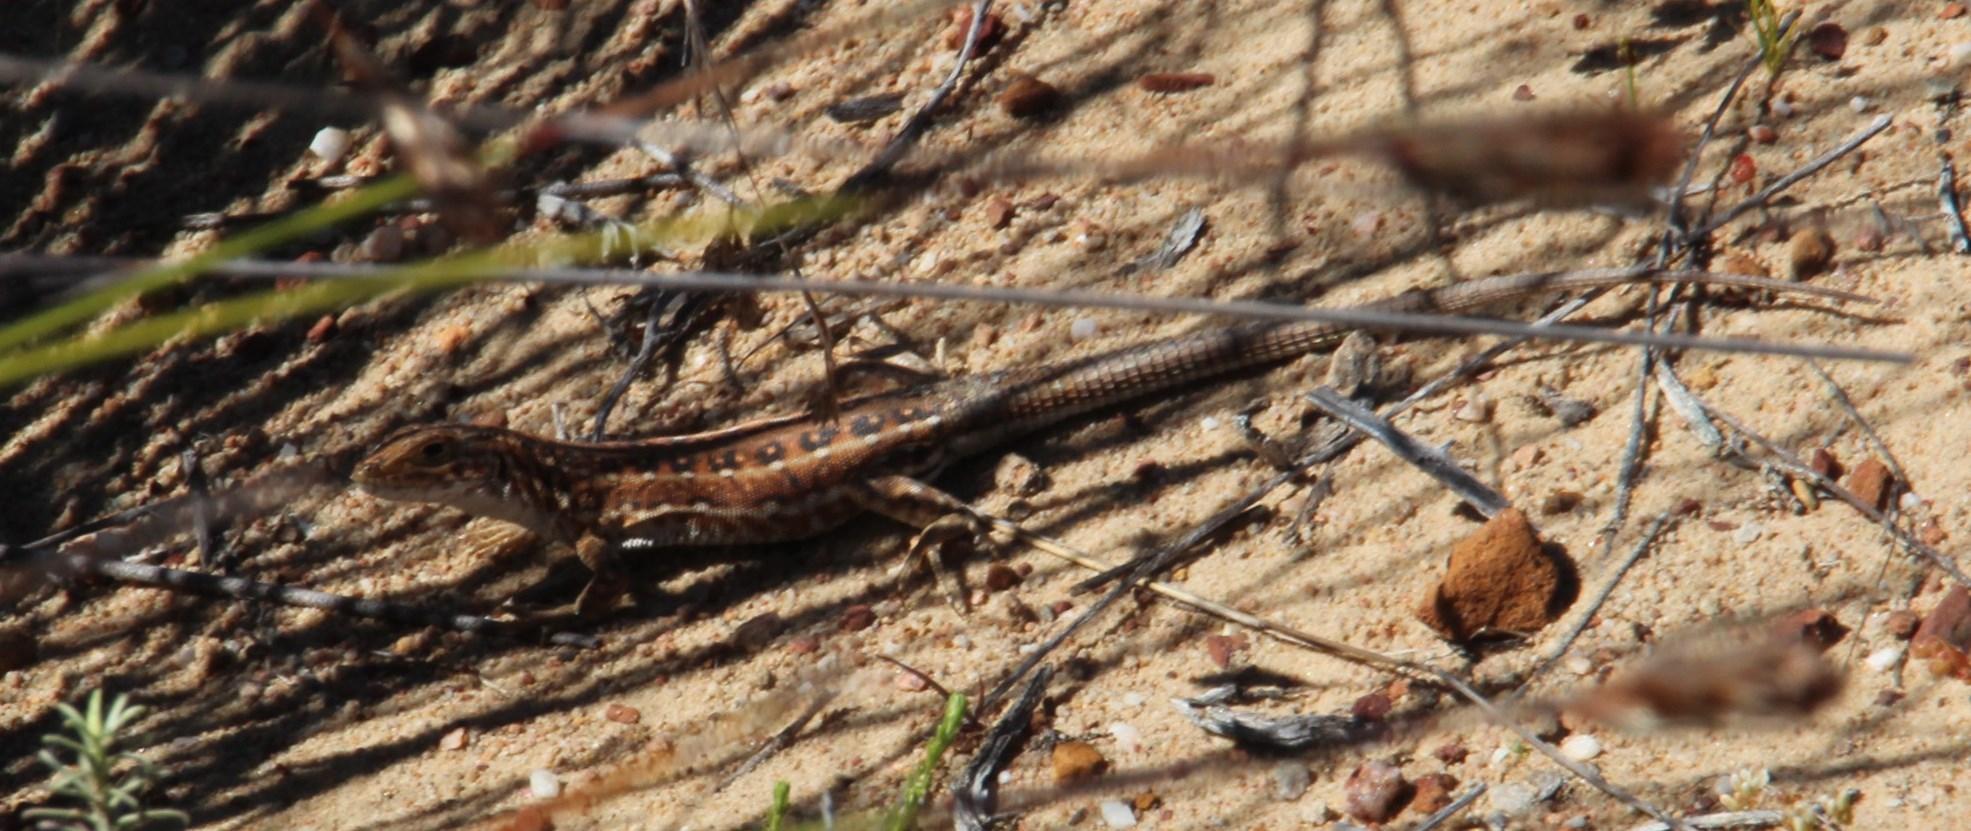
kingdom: Animalia
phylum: Chordata
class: Squamata
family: Lacertidae
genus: Pedioplanis
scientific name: Pedioplanis lineoocellata
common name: Spotted sand lizard
